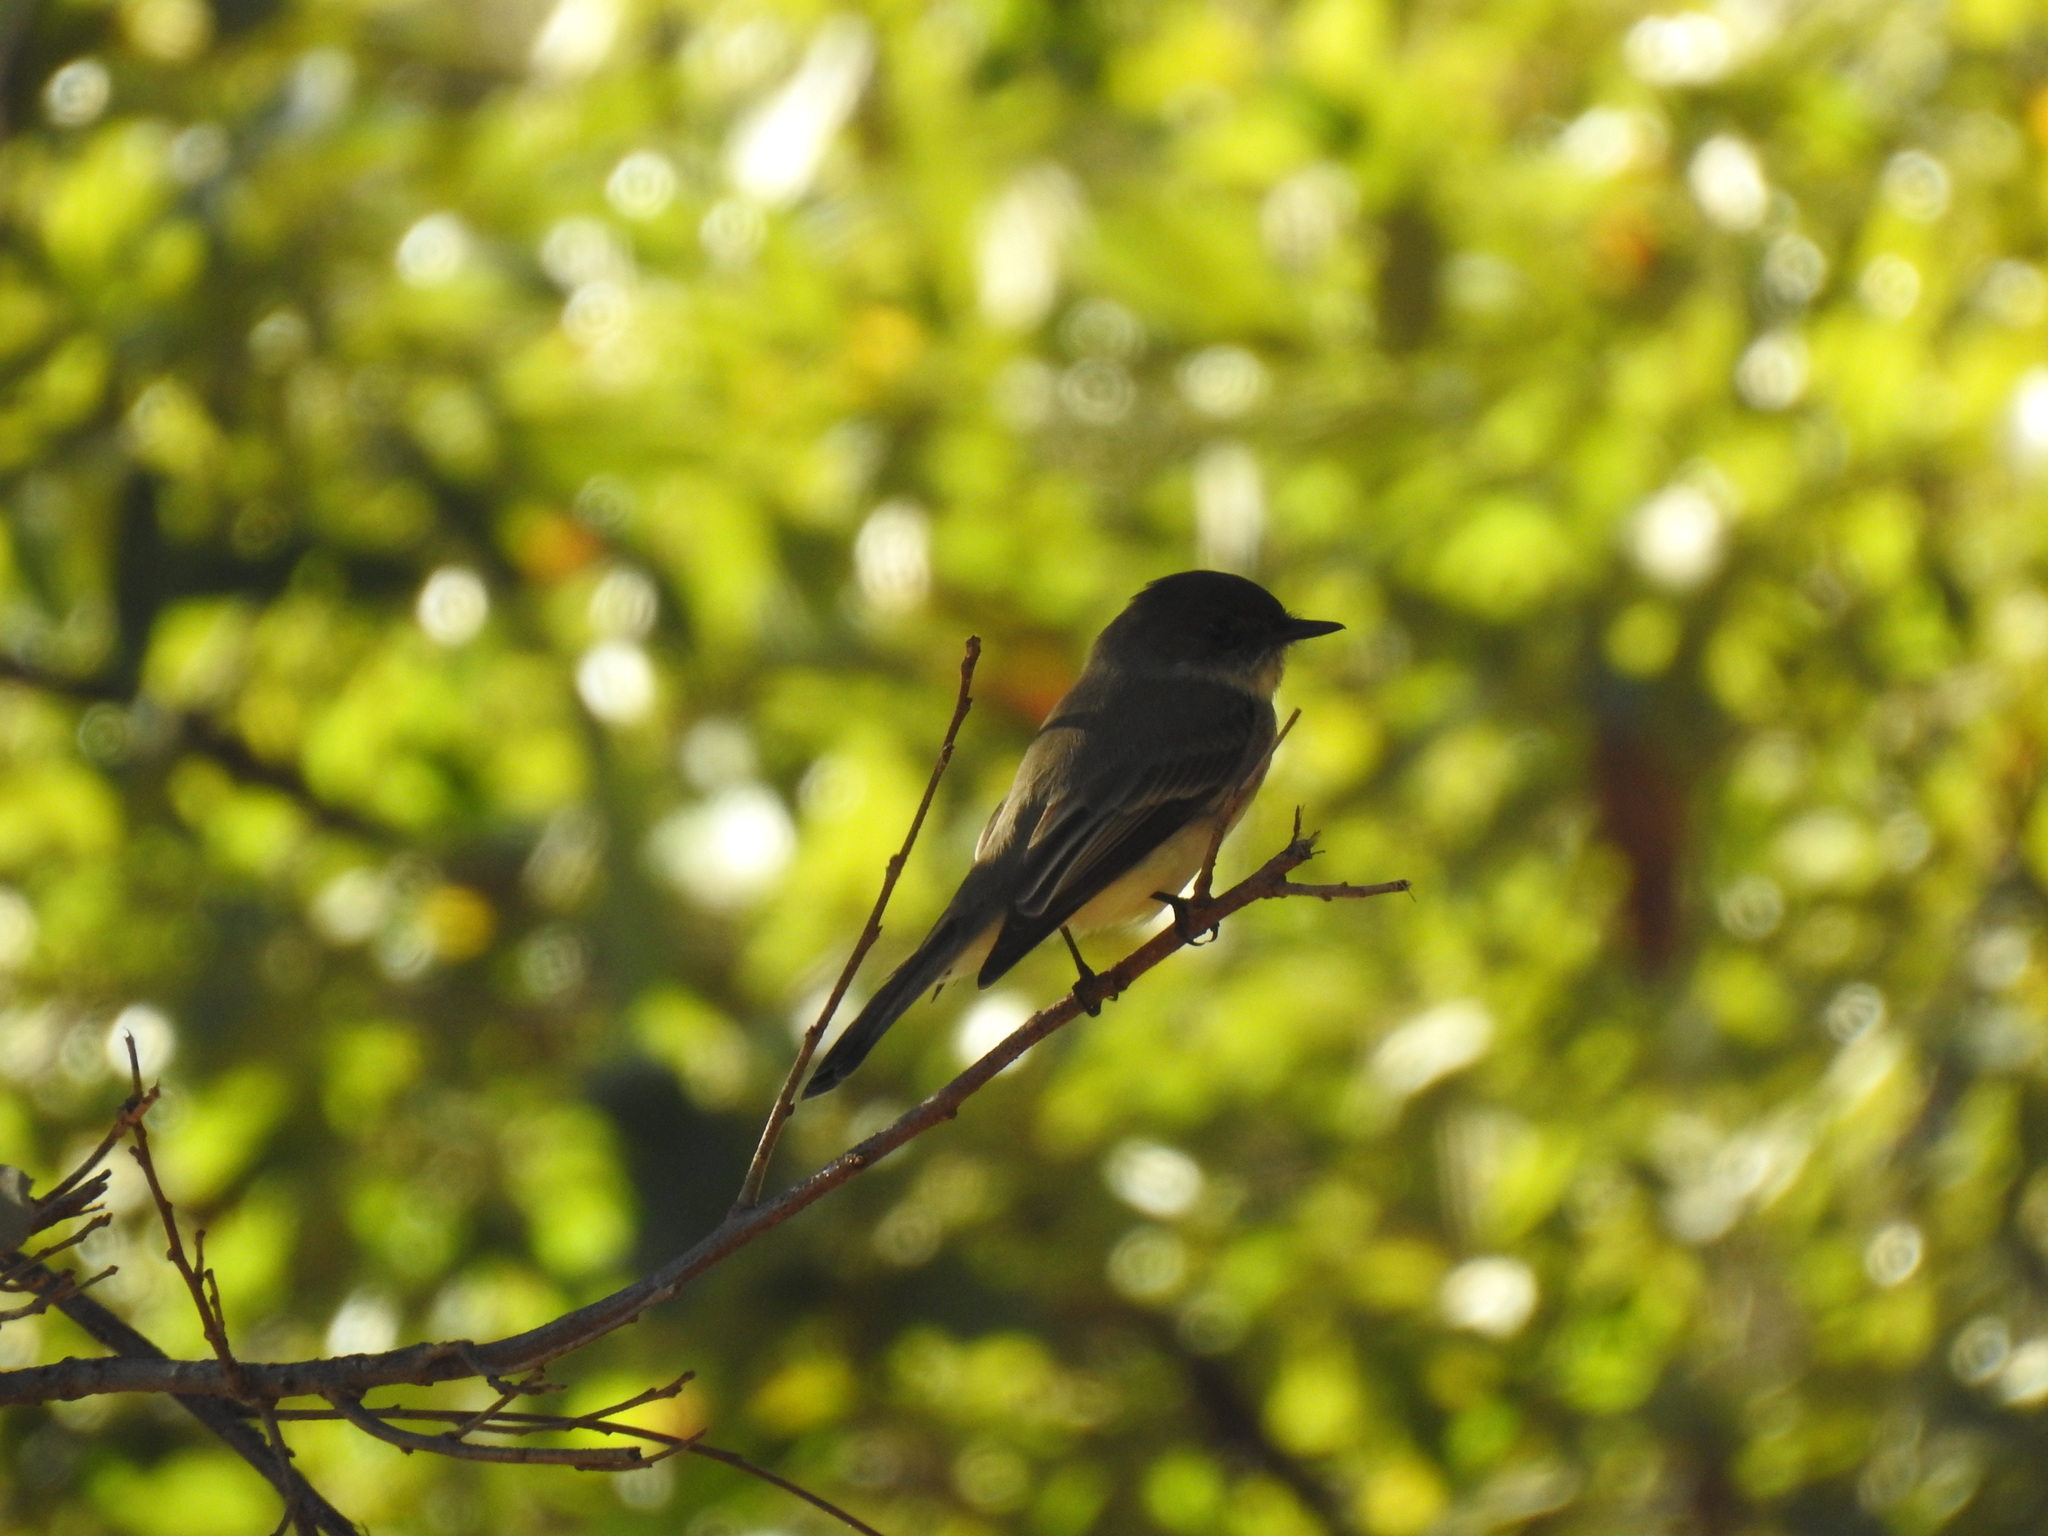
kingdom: Animalia
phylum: Chordata
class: Aves
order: Passeriformes
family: Tyrannidae
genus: Sayornis
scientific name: Sayornis phoebe
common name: Eastern phoebe
